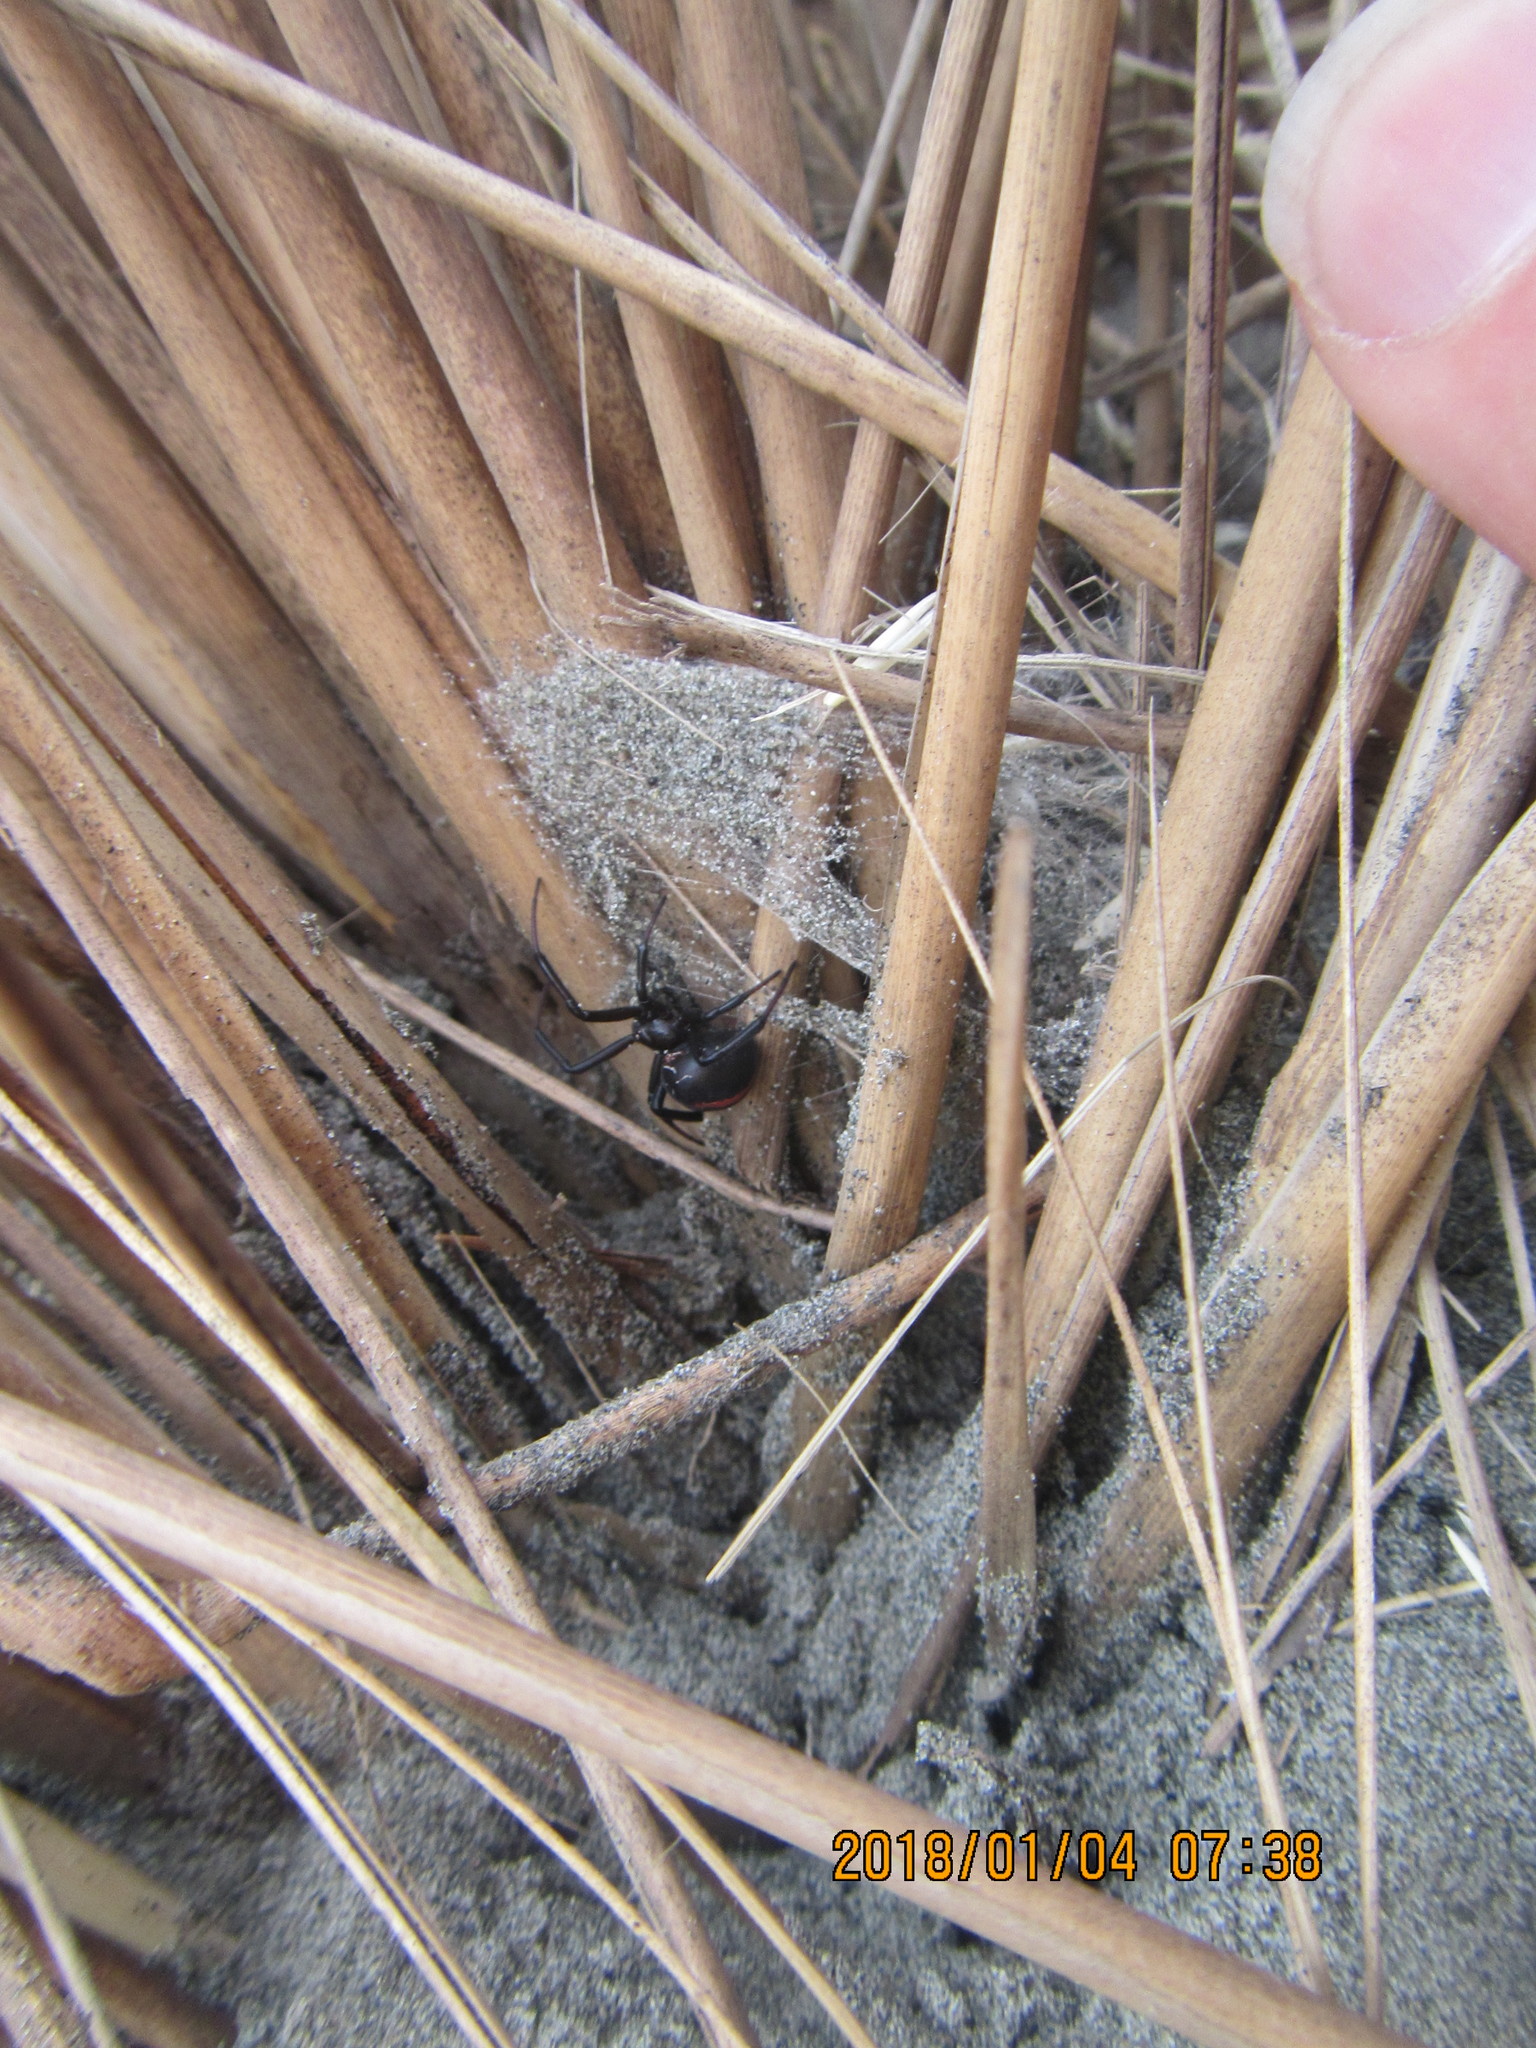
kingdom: Animalia
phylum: Arthropoda
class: Arachnida
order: Araneae
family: Theridiidae
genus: Latrodectus
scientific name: Latrodectus katipo
